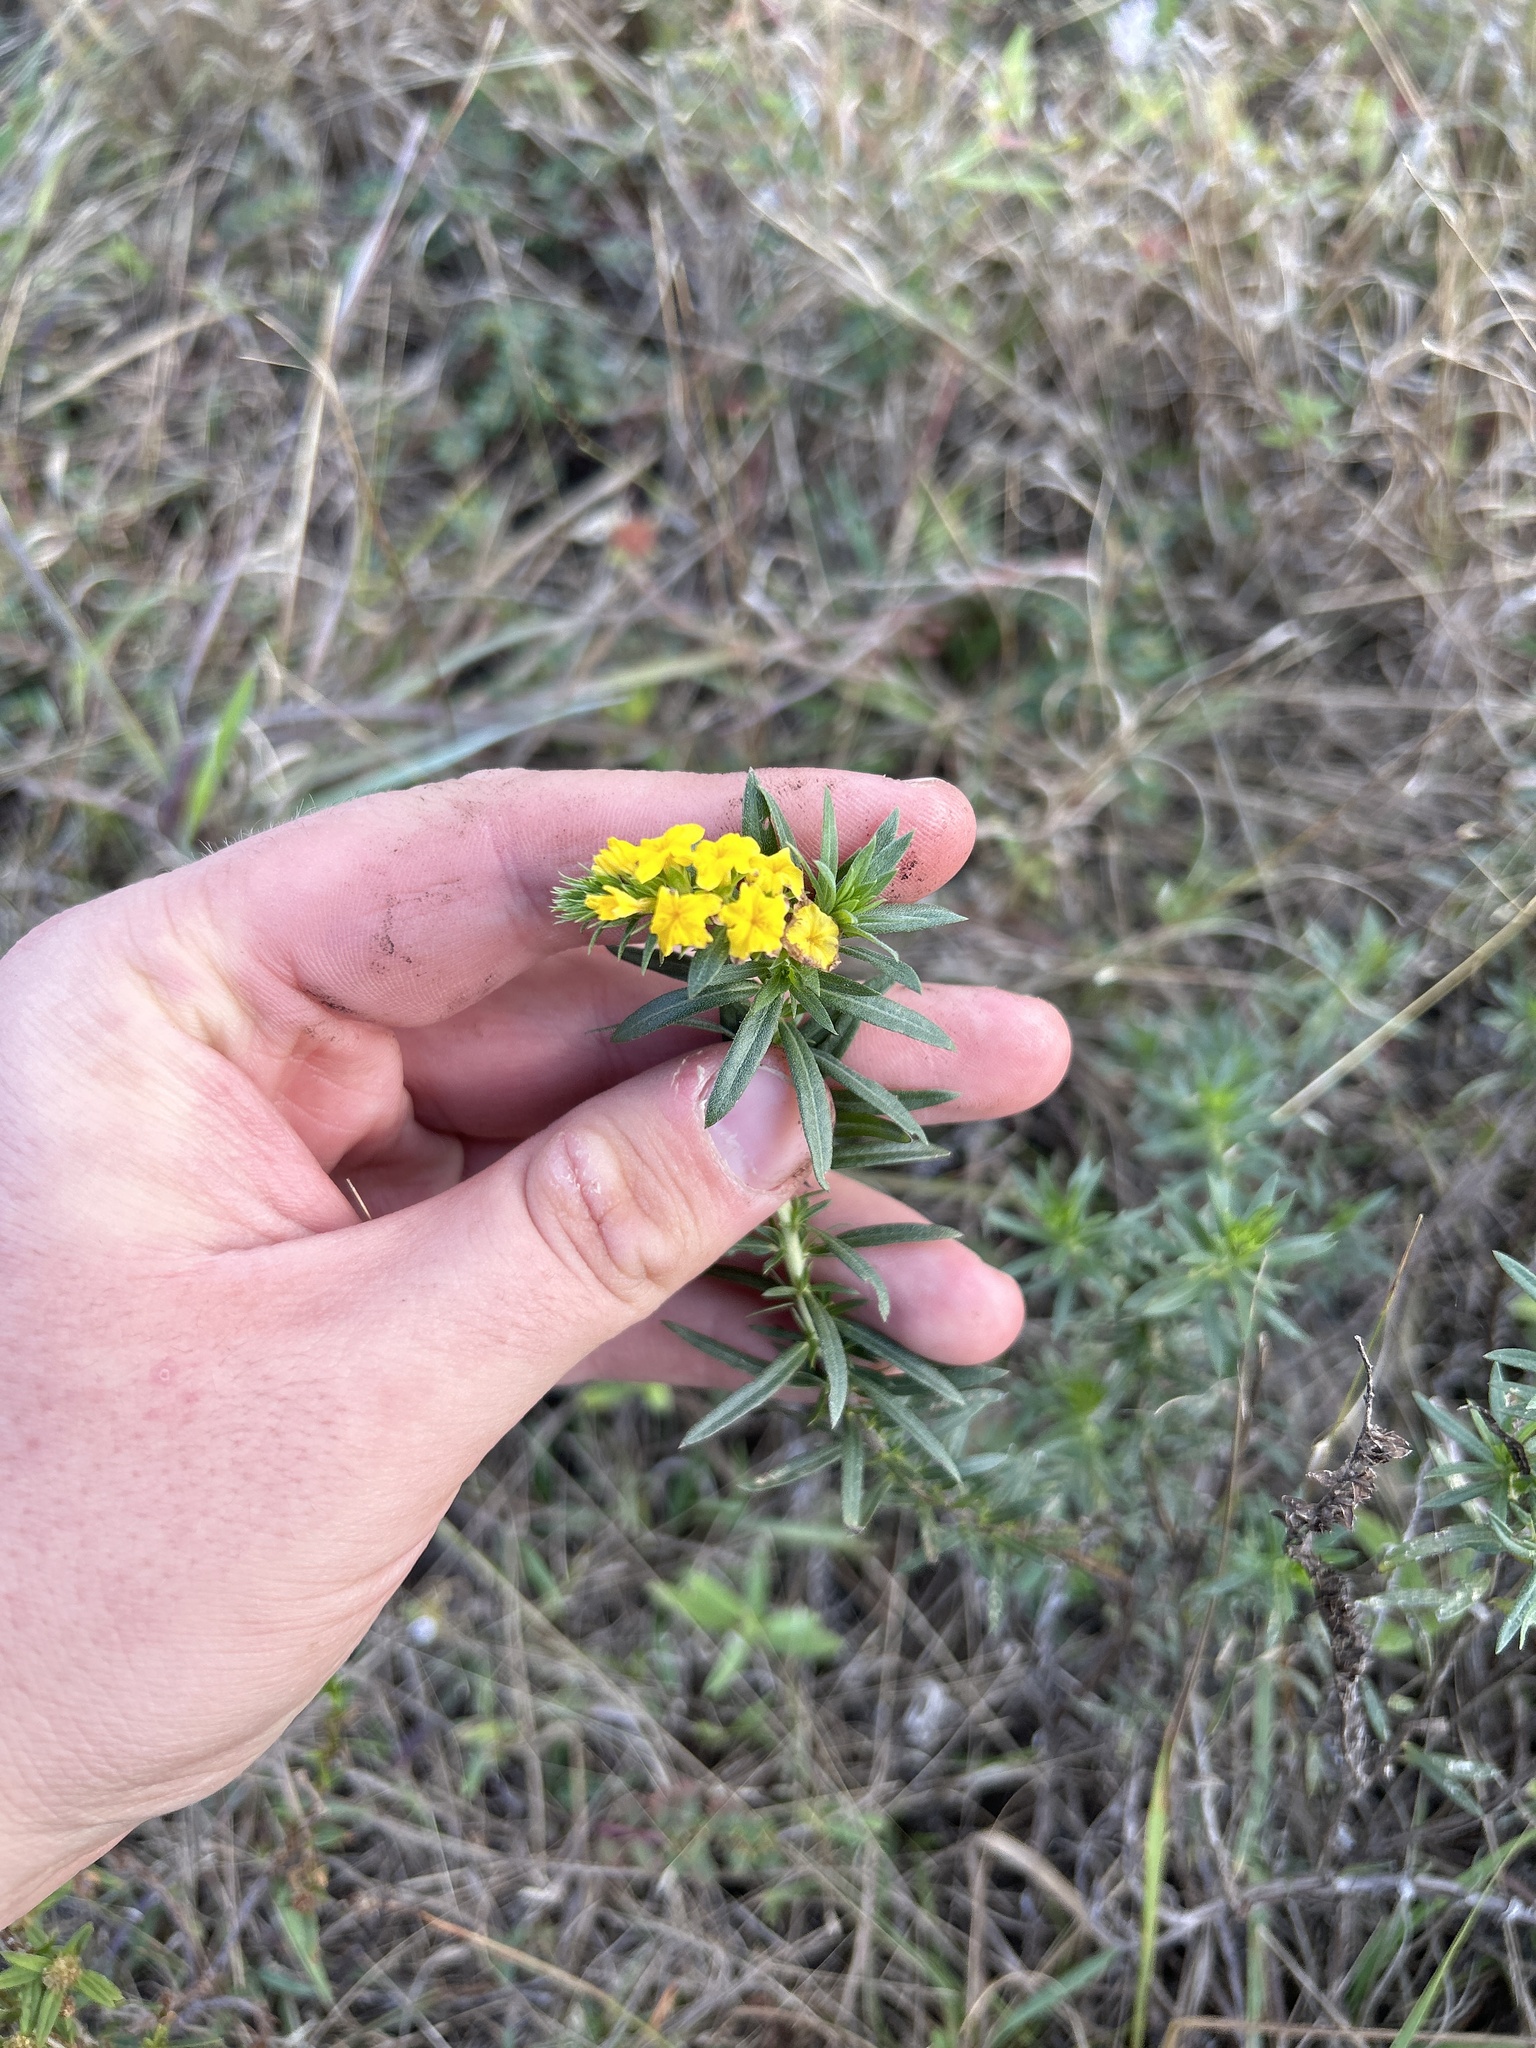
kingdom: Plantae
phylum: Tracheophyta
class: Magnoliopsida
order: Boraginales
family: Heliotropiaceae
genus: Euploca
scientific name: Euploca polyphylla
